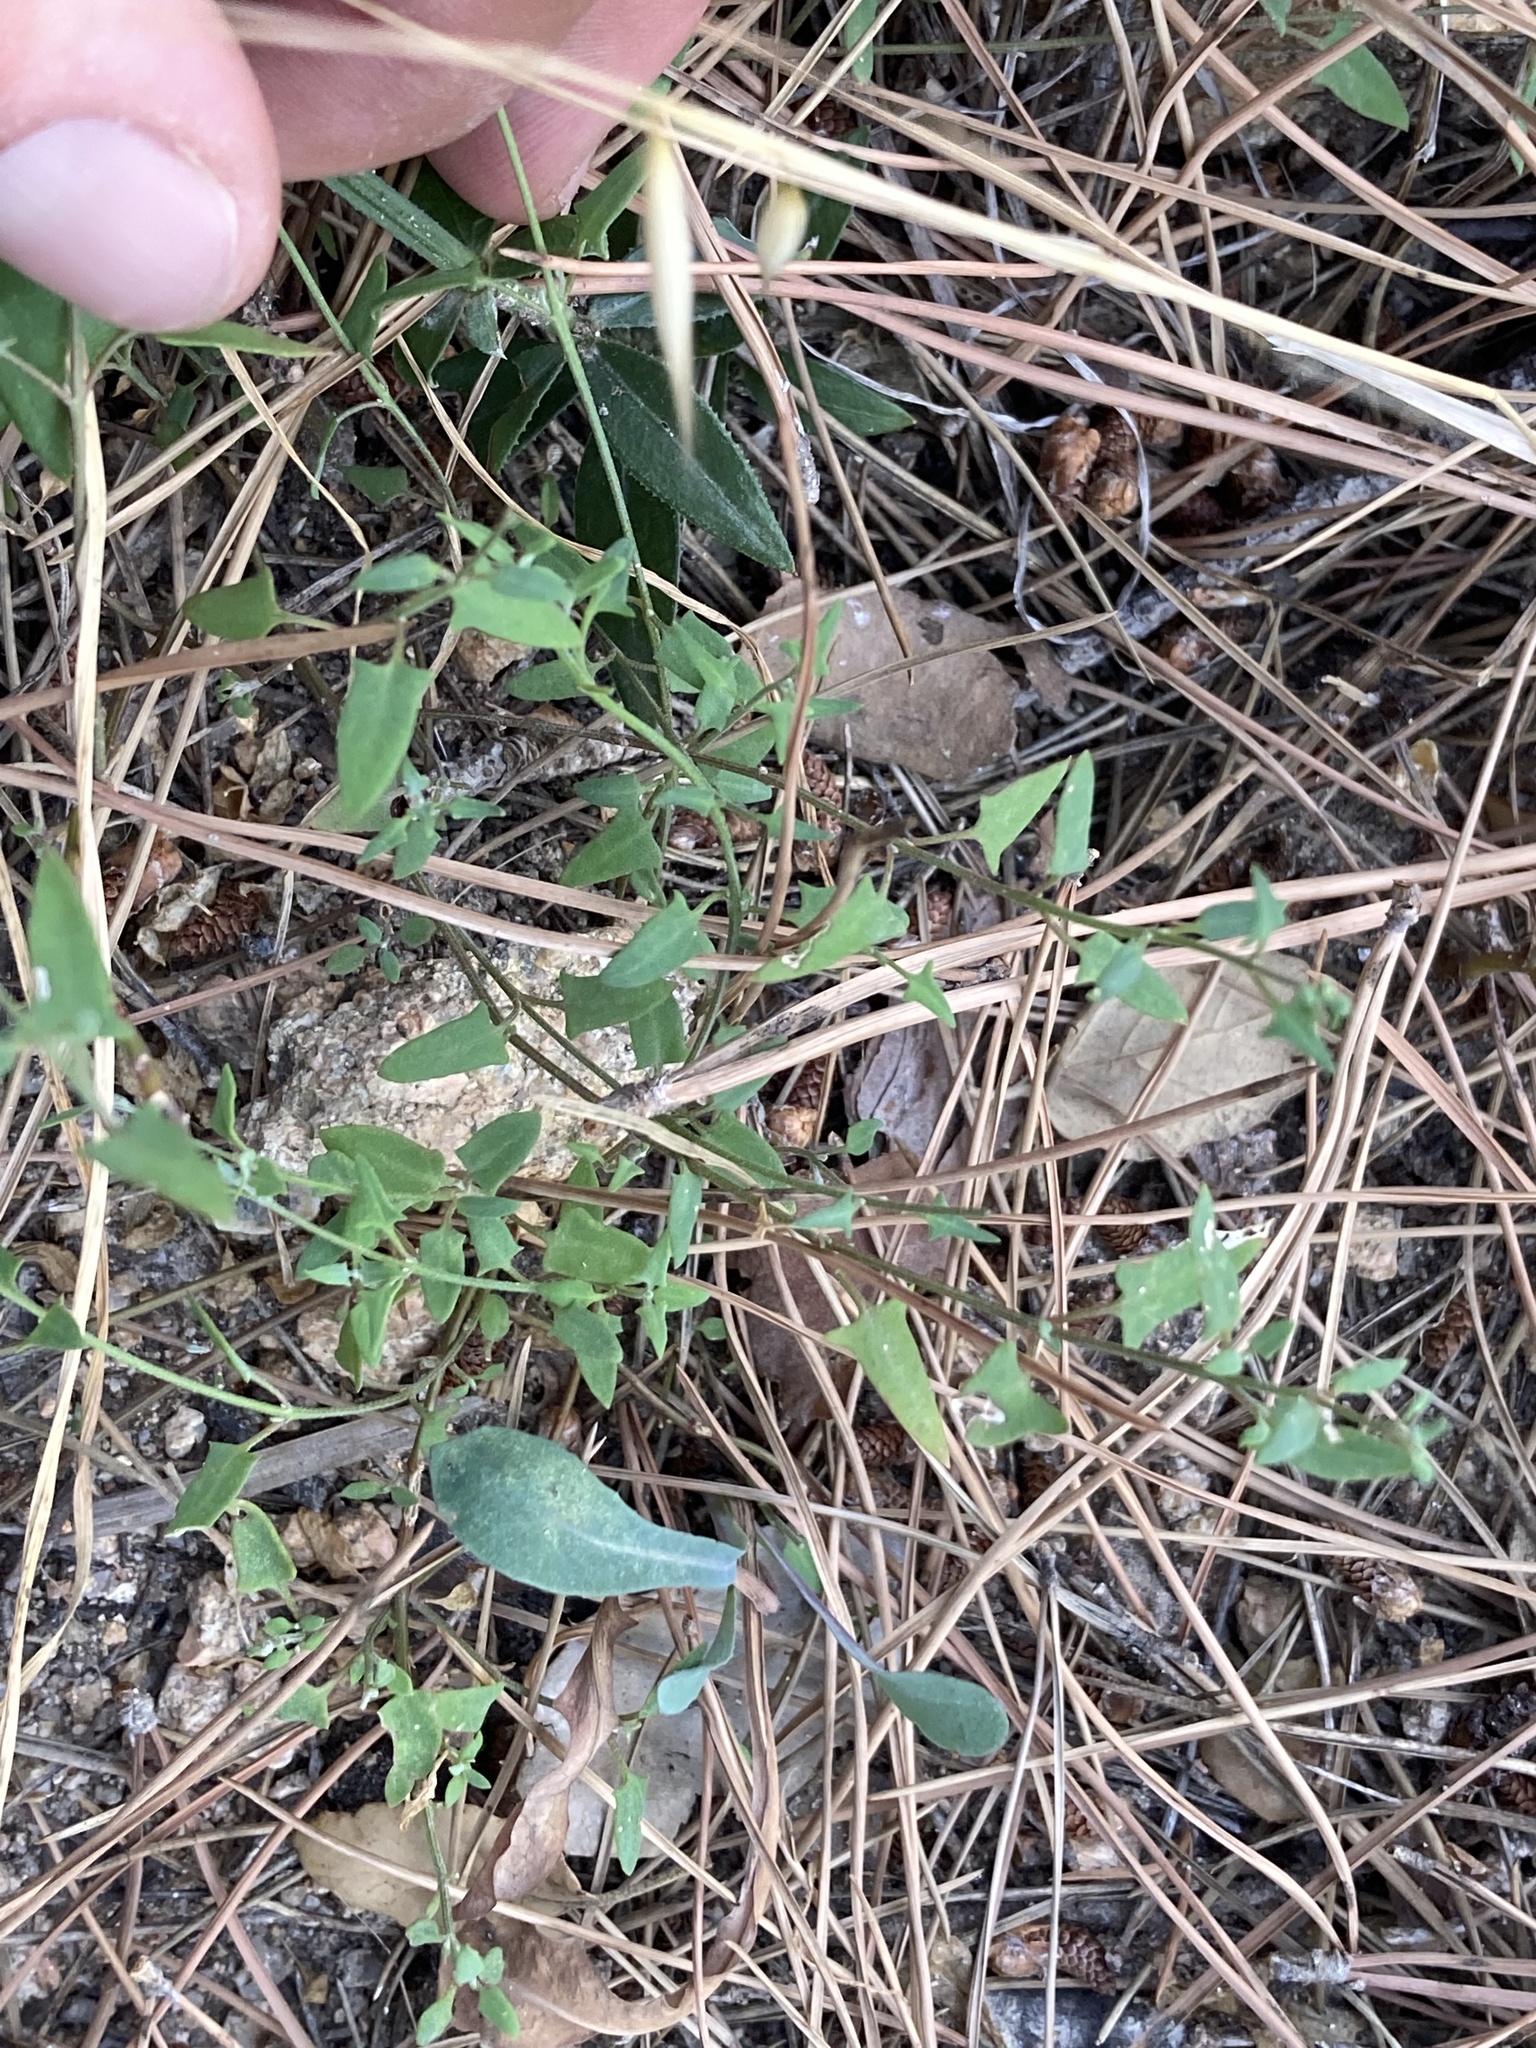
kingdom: Plantae
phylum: Tracheophyta
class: Magnoliopsida
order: Caryophyllales
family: Amaranthaceae
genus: Chenopodium
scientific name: Chenopodium nutans
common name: Climbing-saltbush
